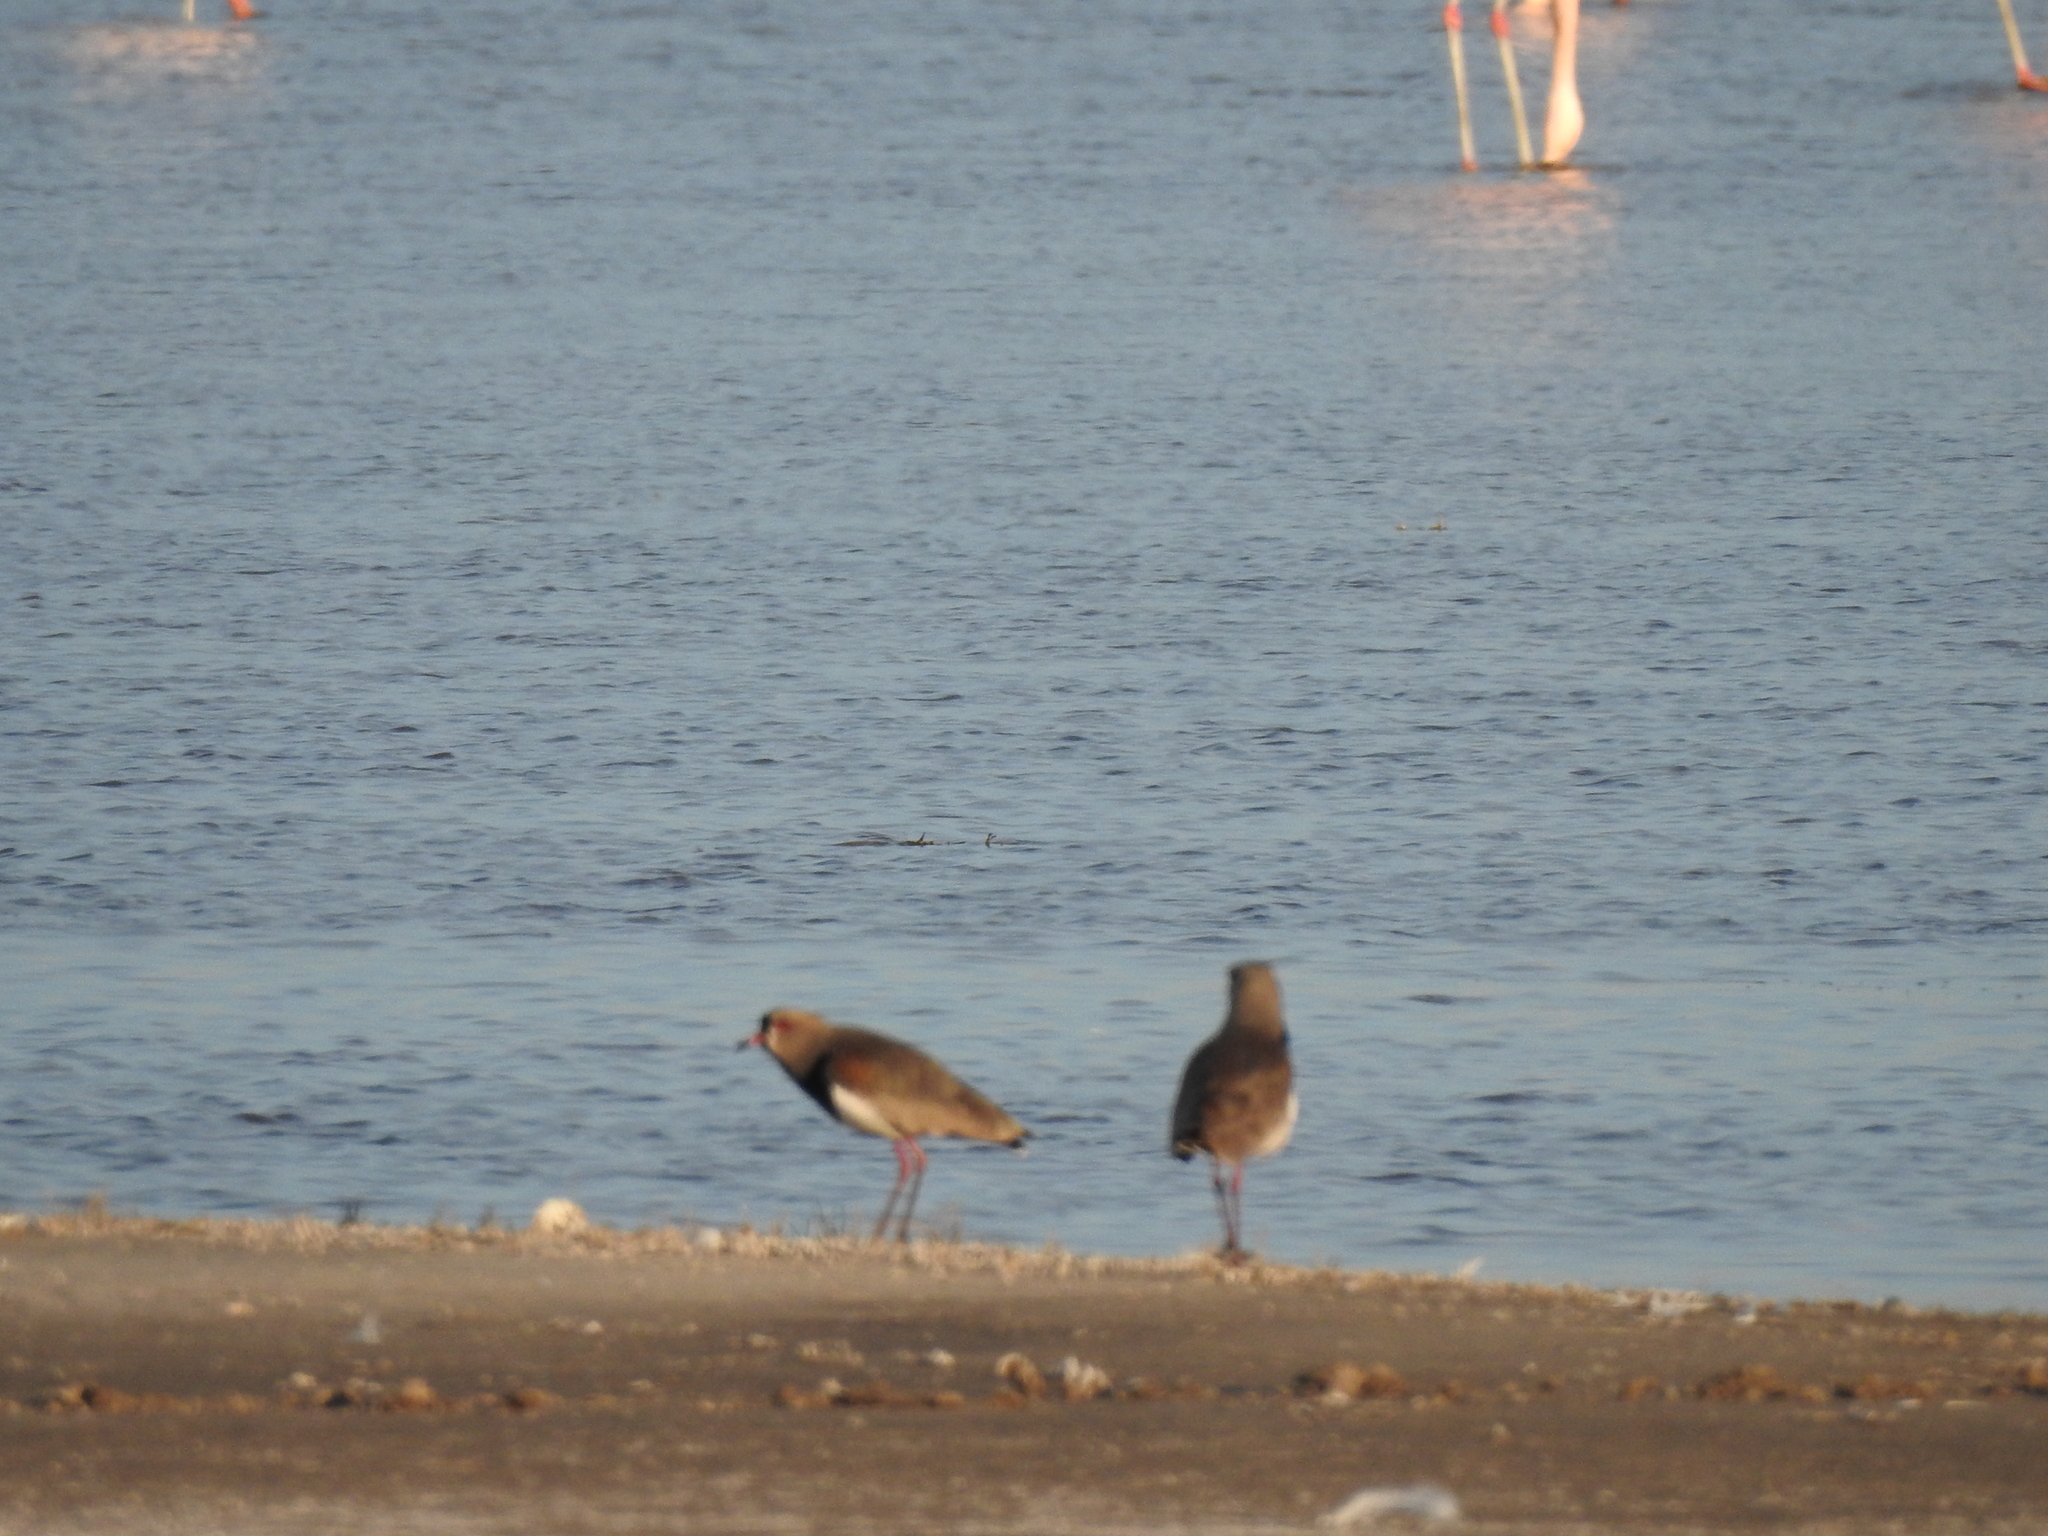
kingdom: Animalia
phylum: Chordata
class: Aves
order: Charadriiformes
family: Charadriidae
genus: Vanellus
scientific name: Vanellus chilensis
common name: Southern lapwing
